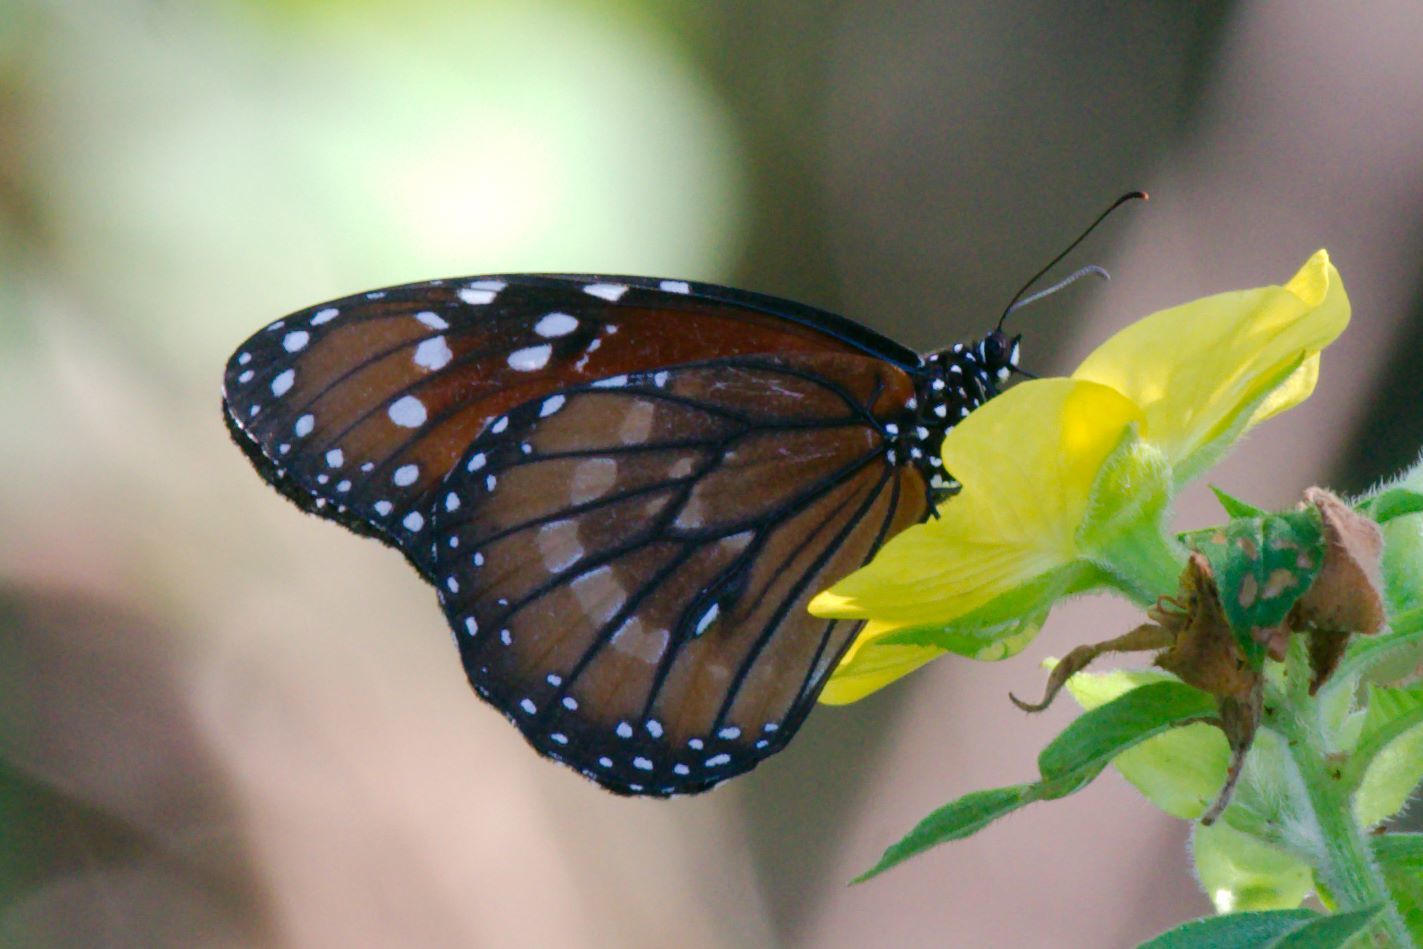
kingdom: Animalia
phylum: Arthropoda
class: Insecta
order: Lepidoptera
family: Nymphalidae
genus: Danaus
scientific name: Danaus eresimus
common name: Soldier
